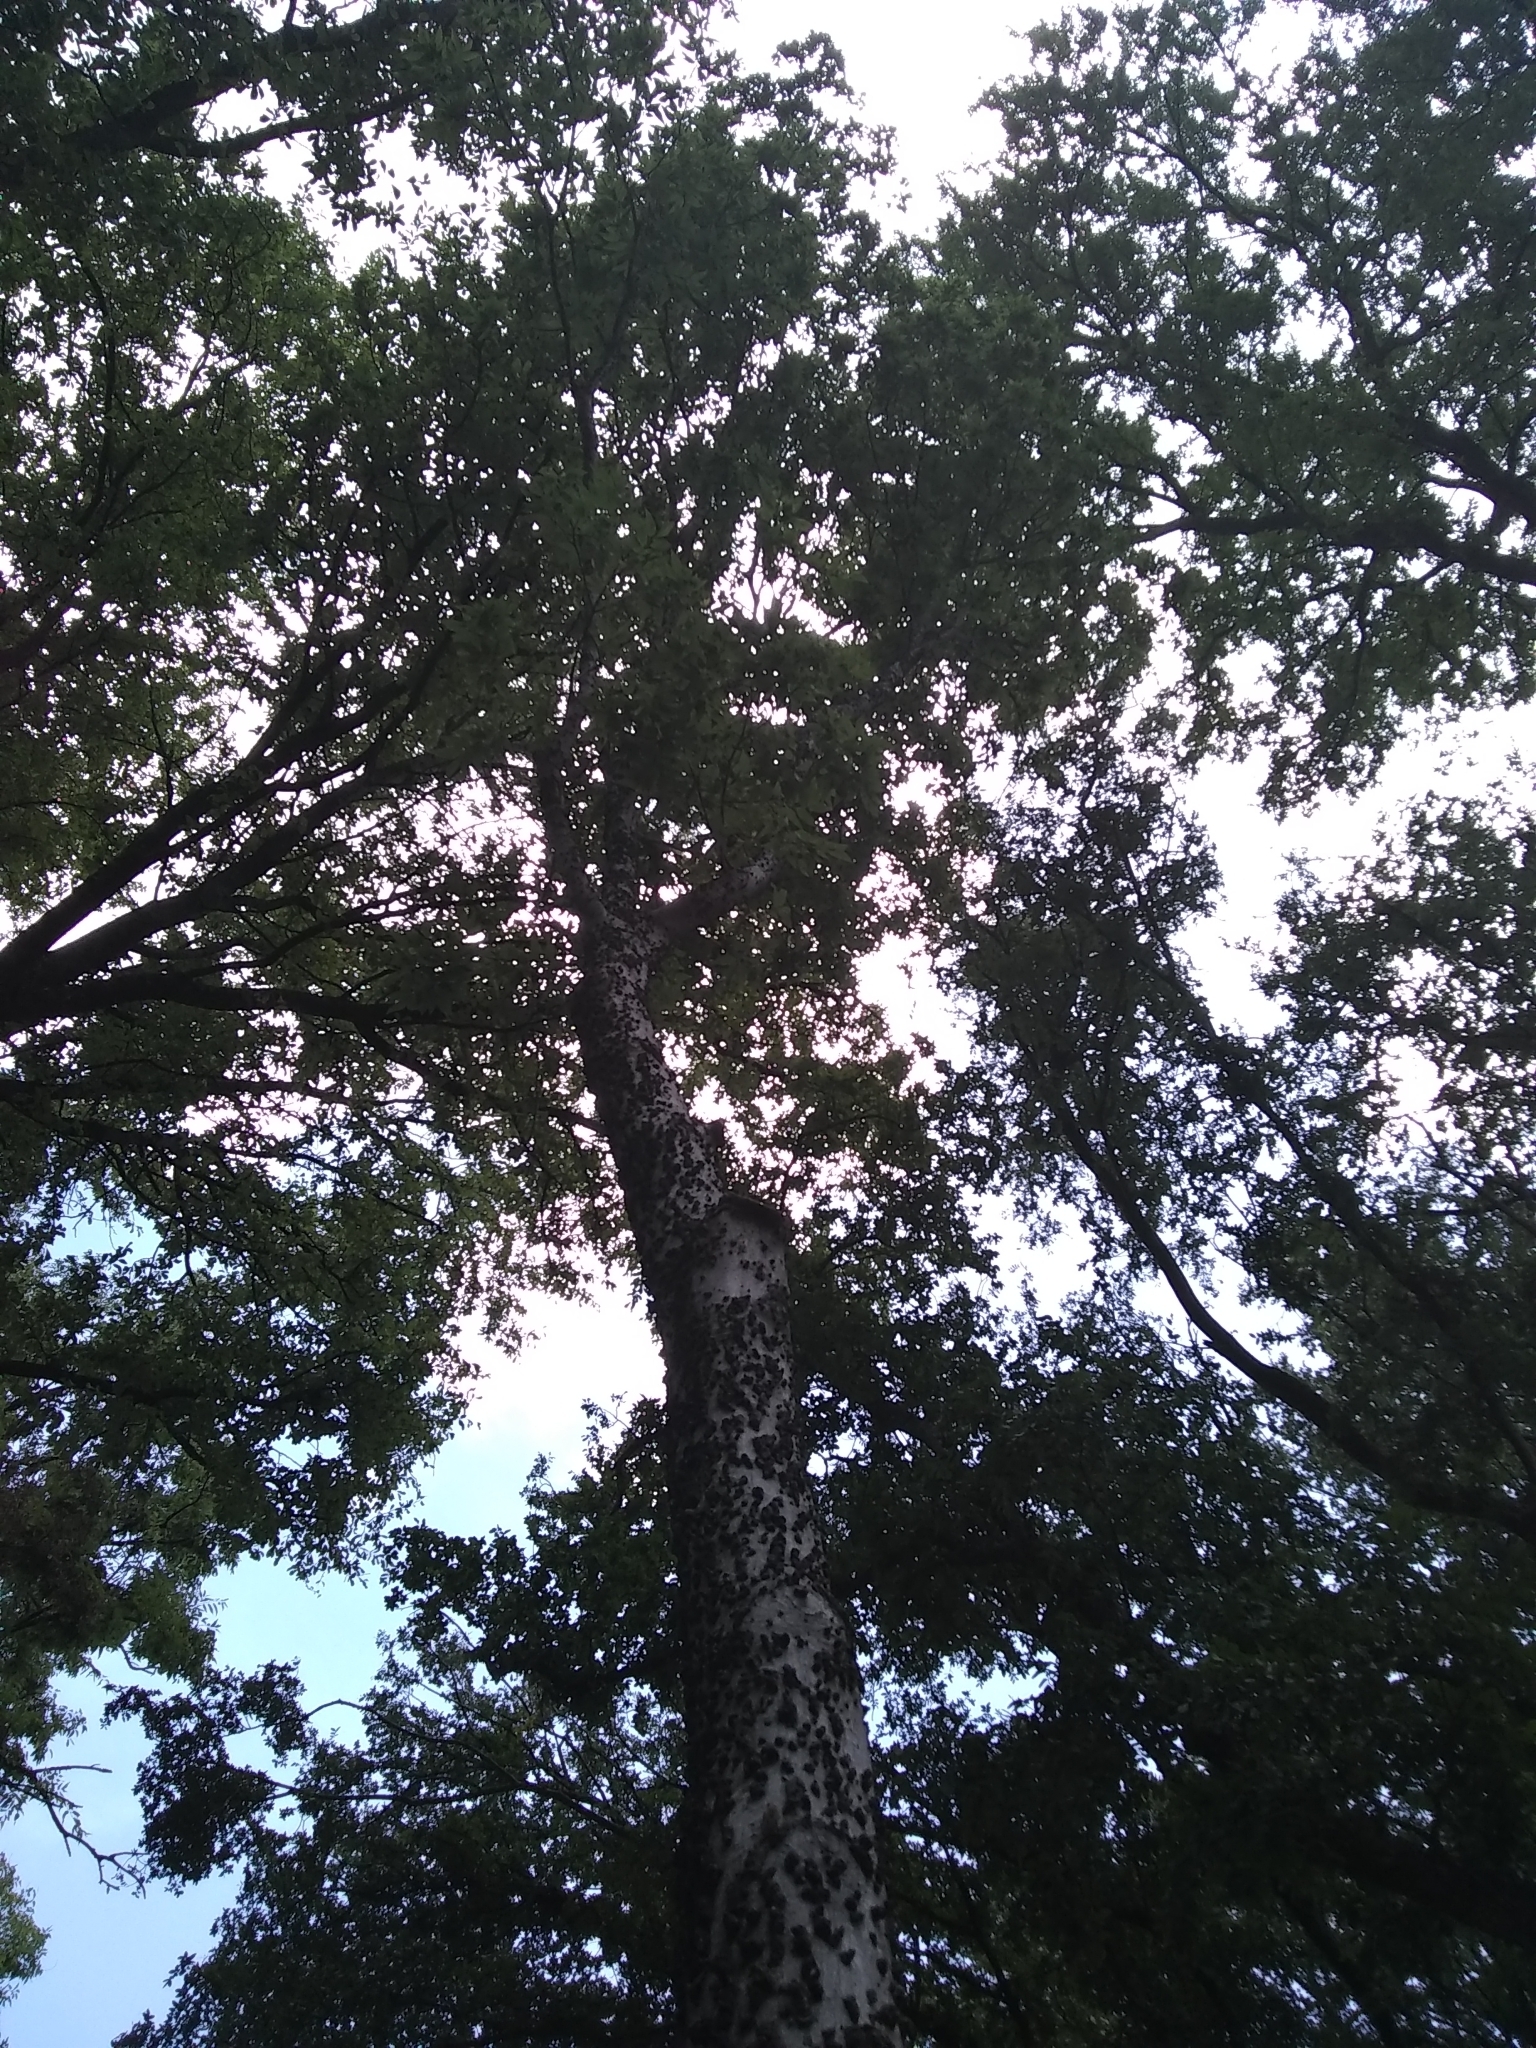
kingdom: Plantae
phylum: Tracheophyta
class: Magnoliopsida
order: Rosales
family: Cannabaceae
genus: Celtis
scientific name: Celtis laevigata
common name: Sugarberry
